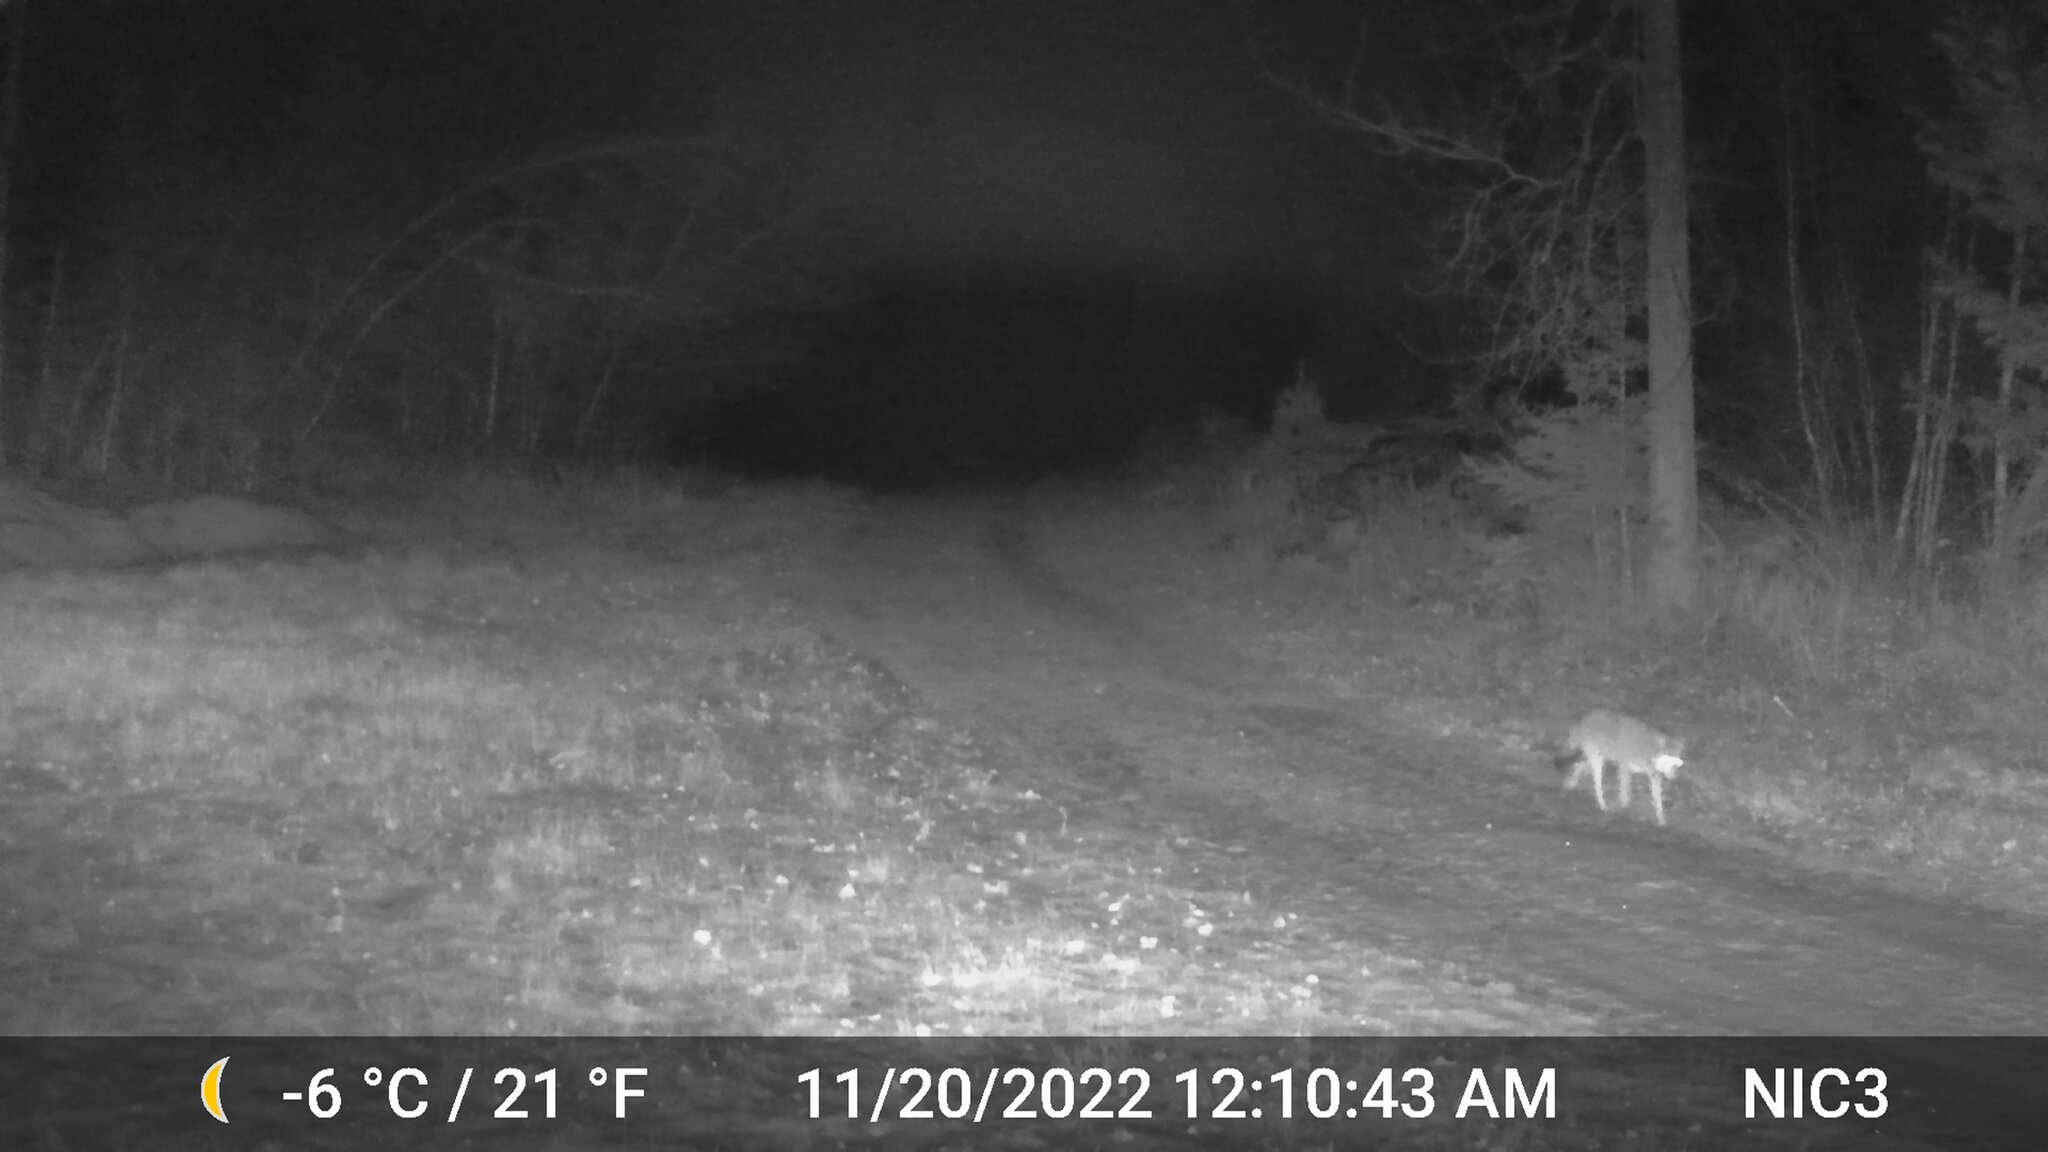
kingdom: Animalia
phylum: Chordata
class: Mammalia
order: Carnivora
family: Canidae
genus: Canis
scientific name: Canis latrans
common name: Coyote
